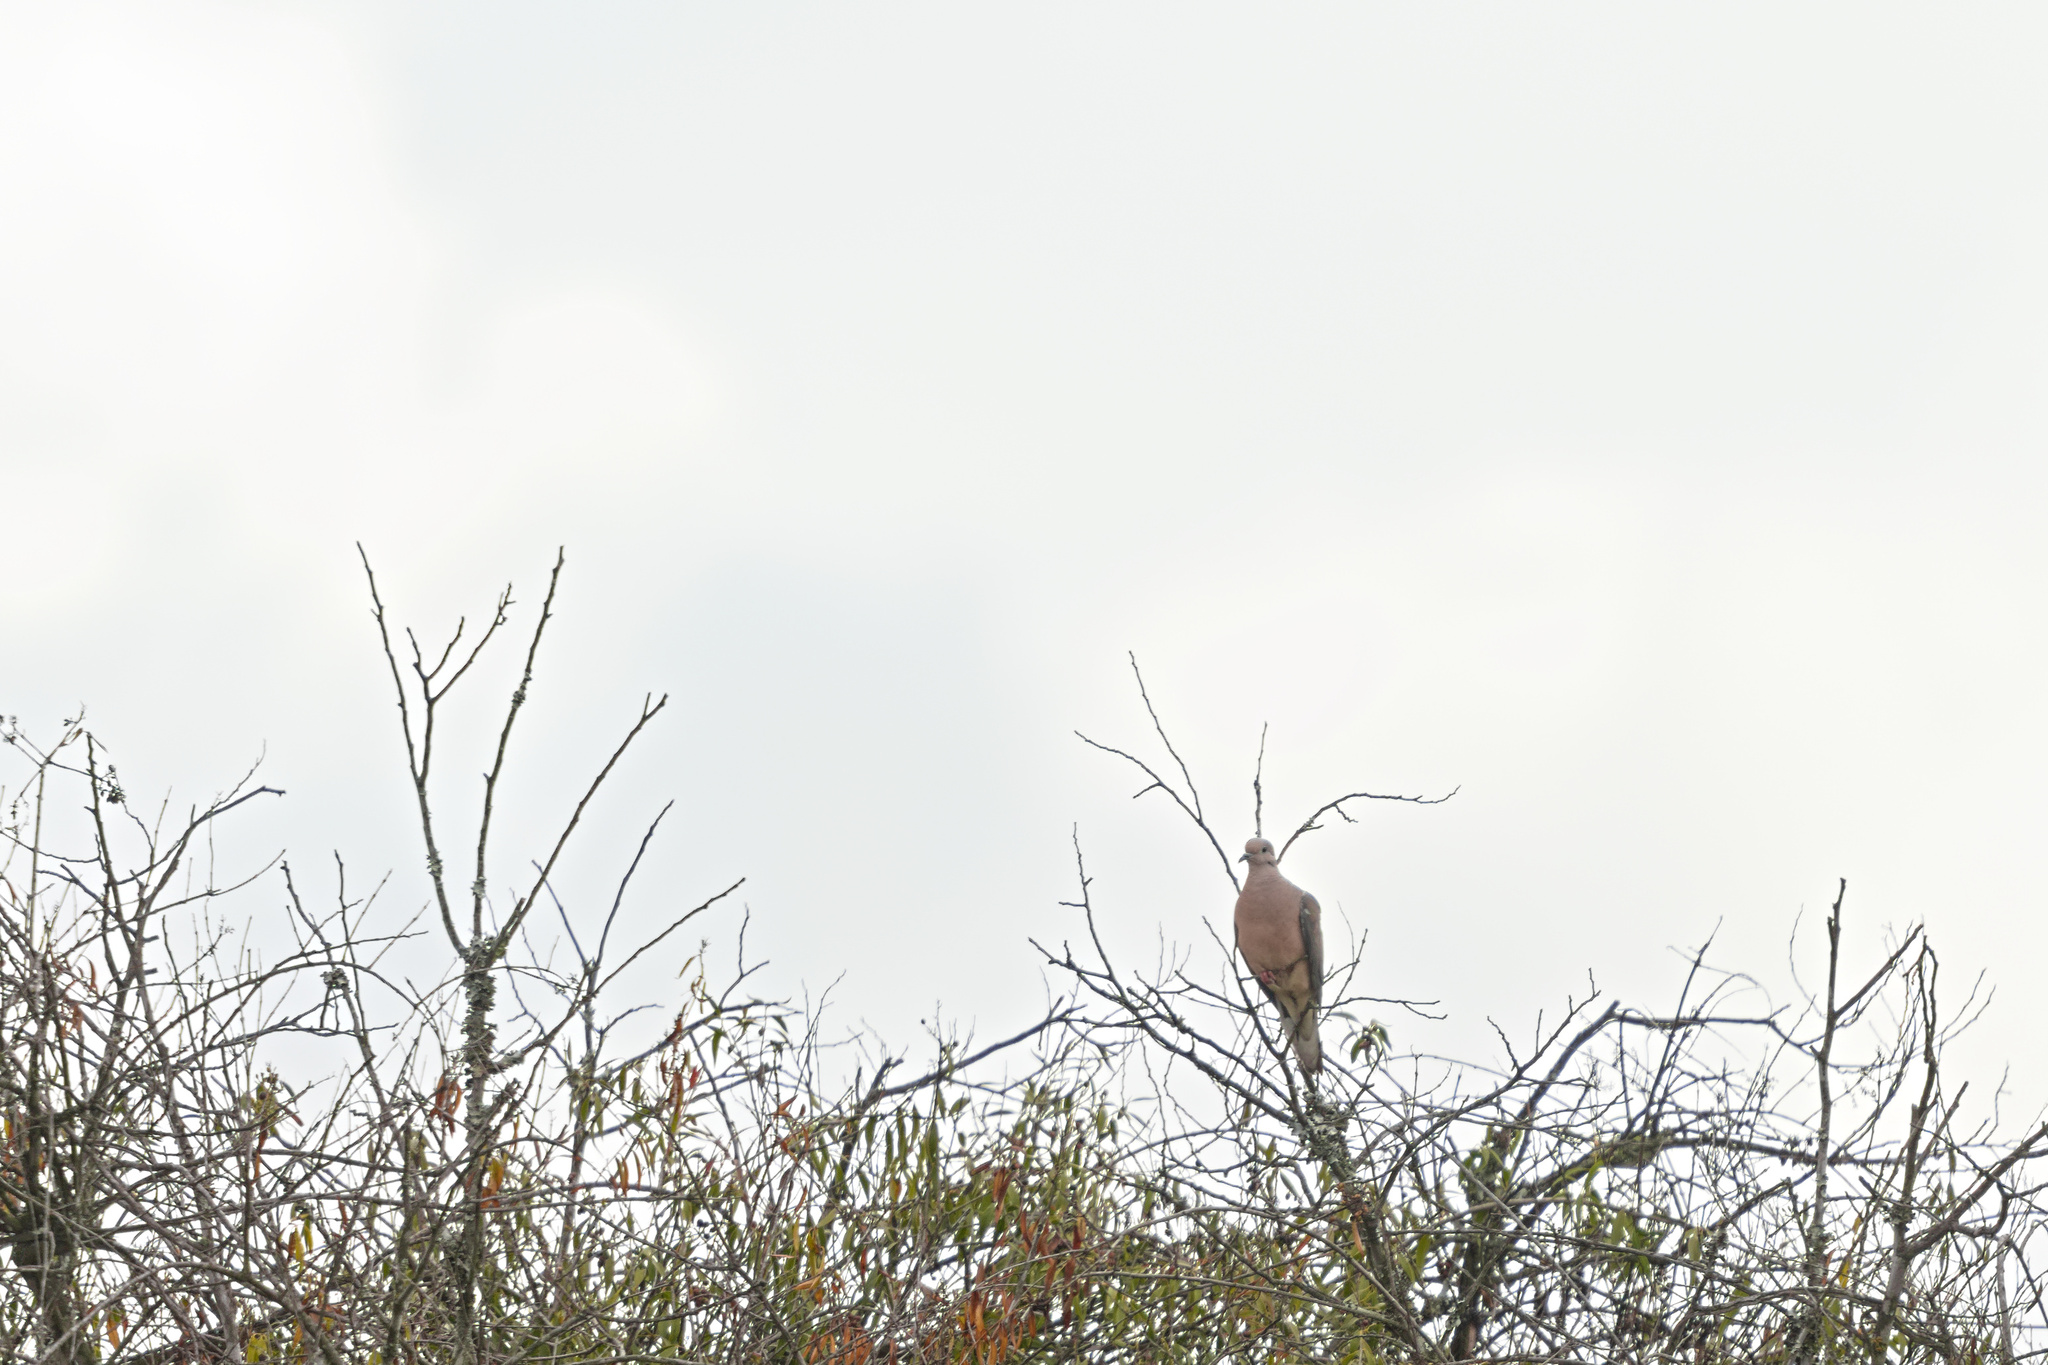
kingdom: Animalia
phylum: Chordata
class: Aves
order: Columbiformes
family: Columbidae
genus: Zenaida
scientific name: Zenaida auriculata
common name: Eared dove
